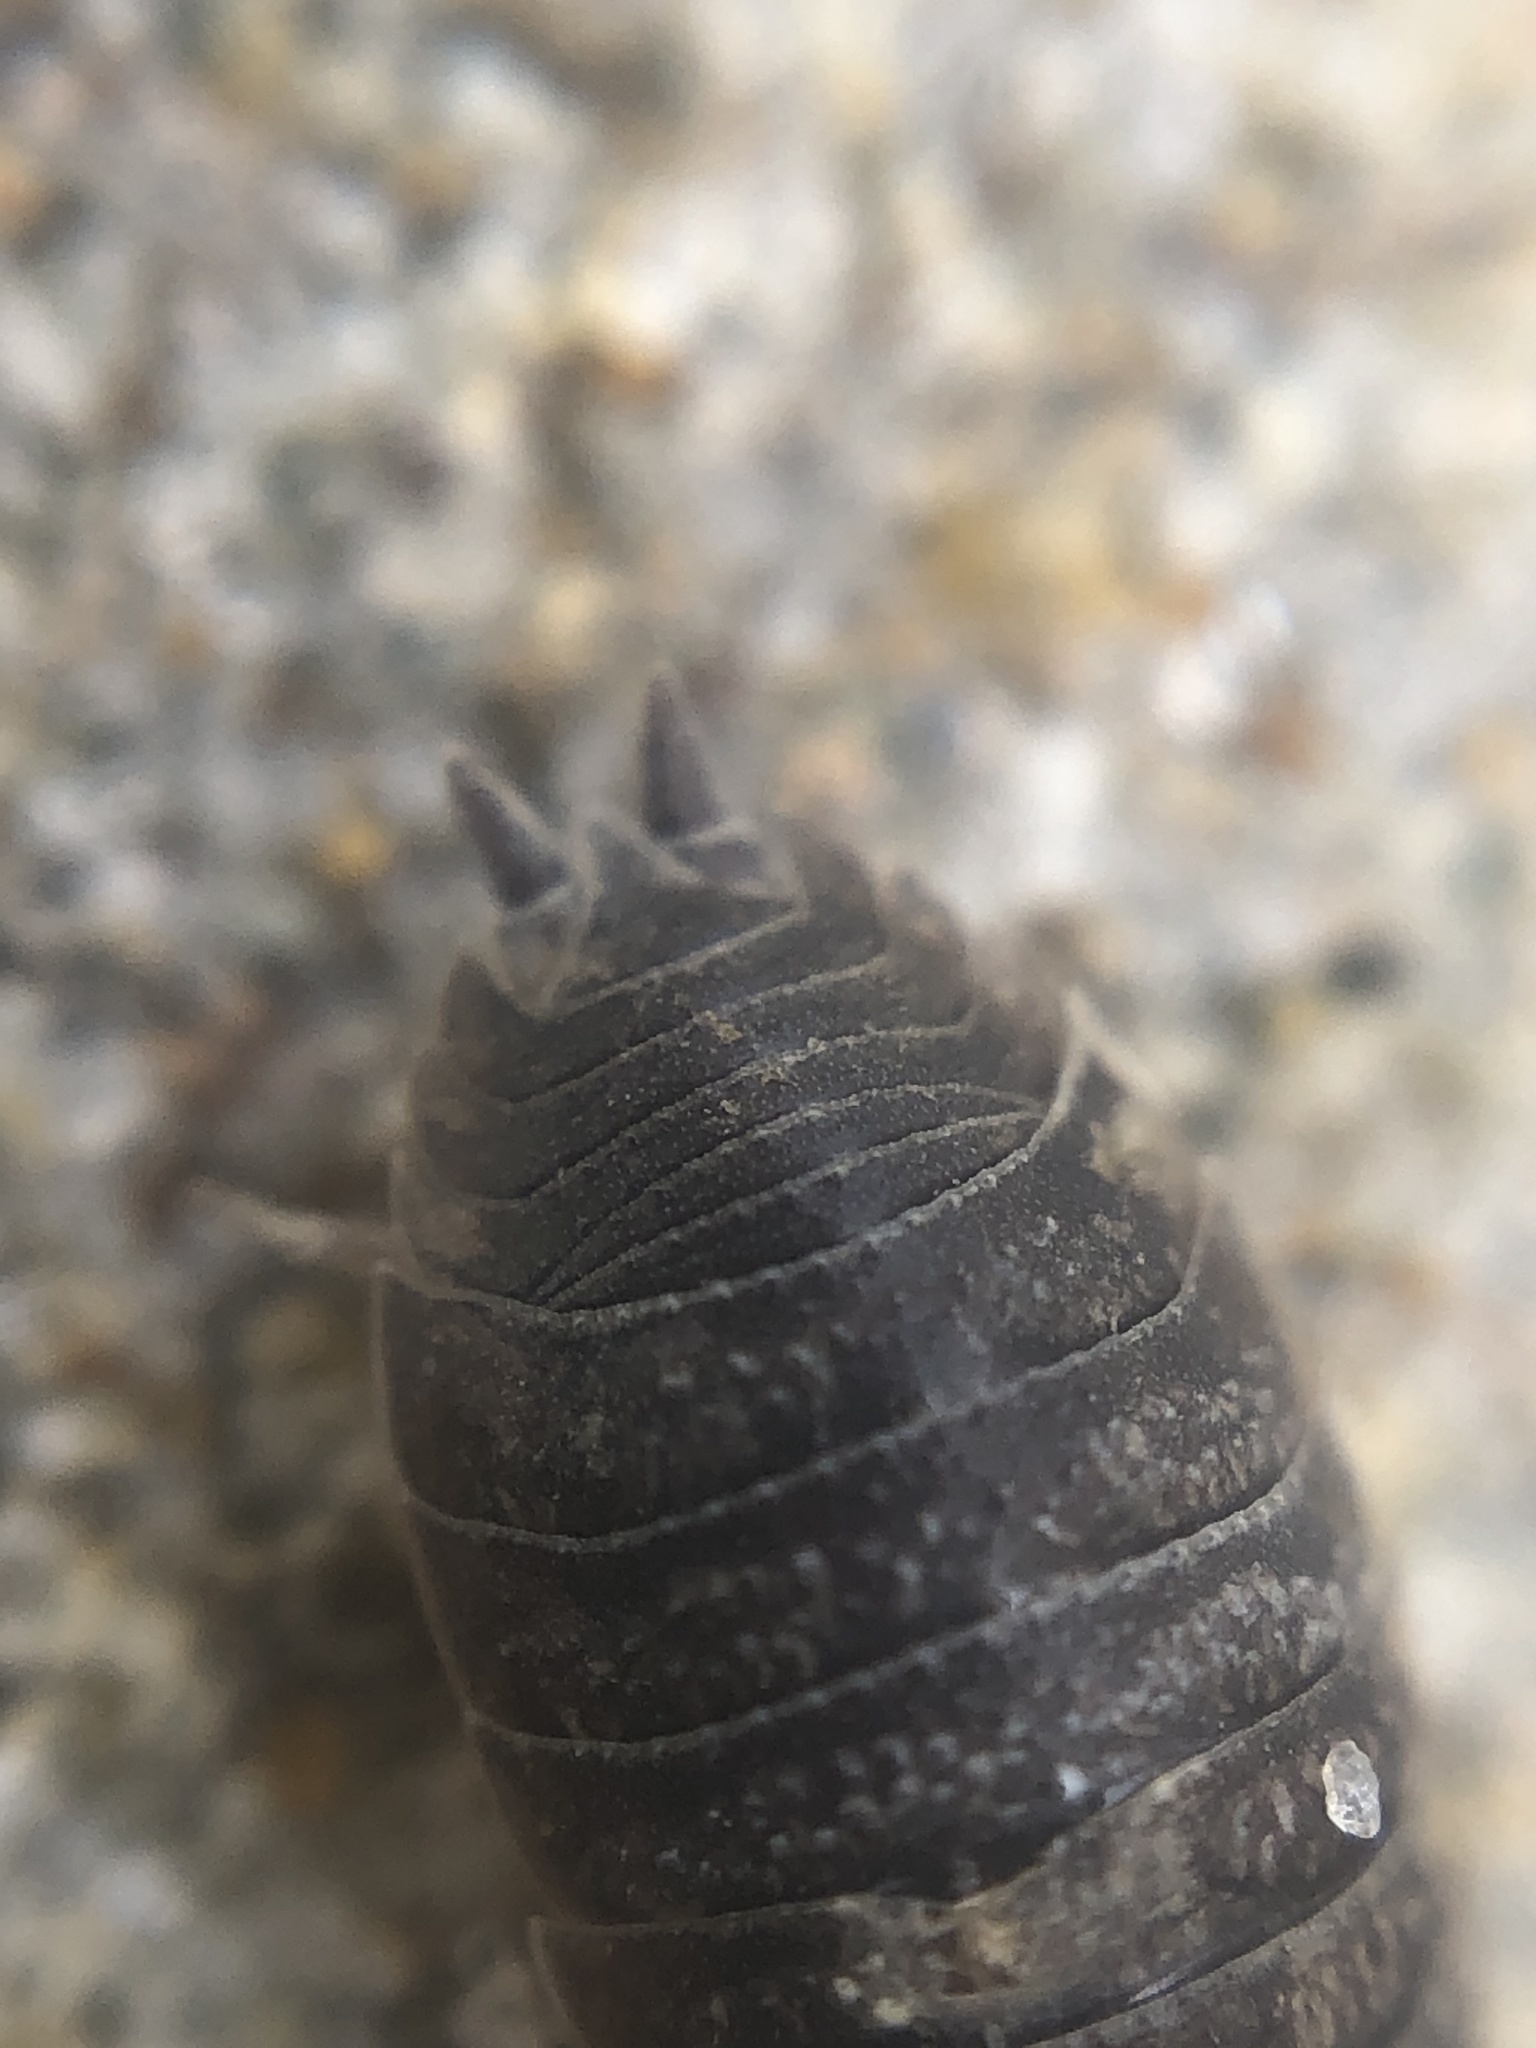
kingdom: Animalia
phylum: Arthropoda
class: Malacostraca
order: Isopoda
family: Porcellionidae
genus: Porcellio
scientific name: Porcellio scaber
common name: Common rough woodlouse
